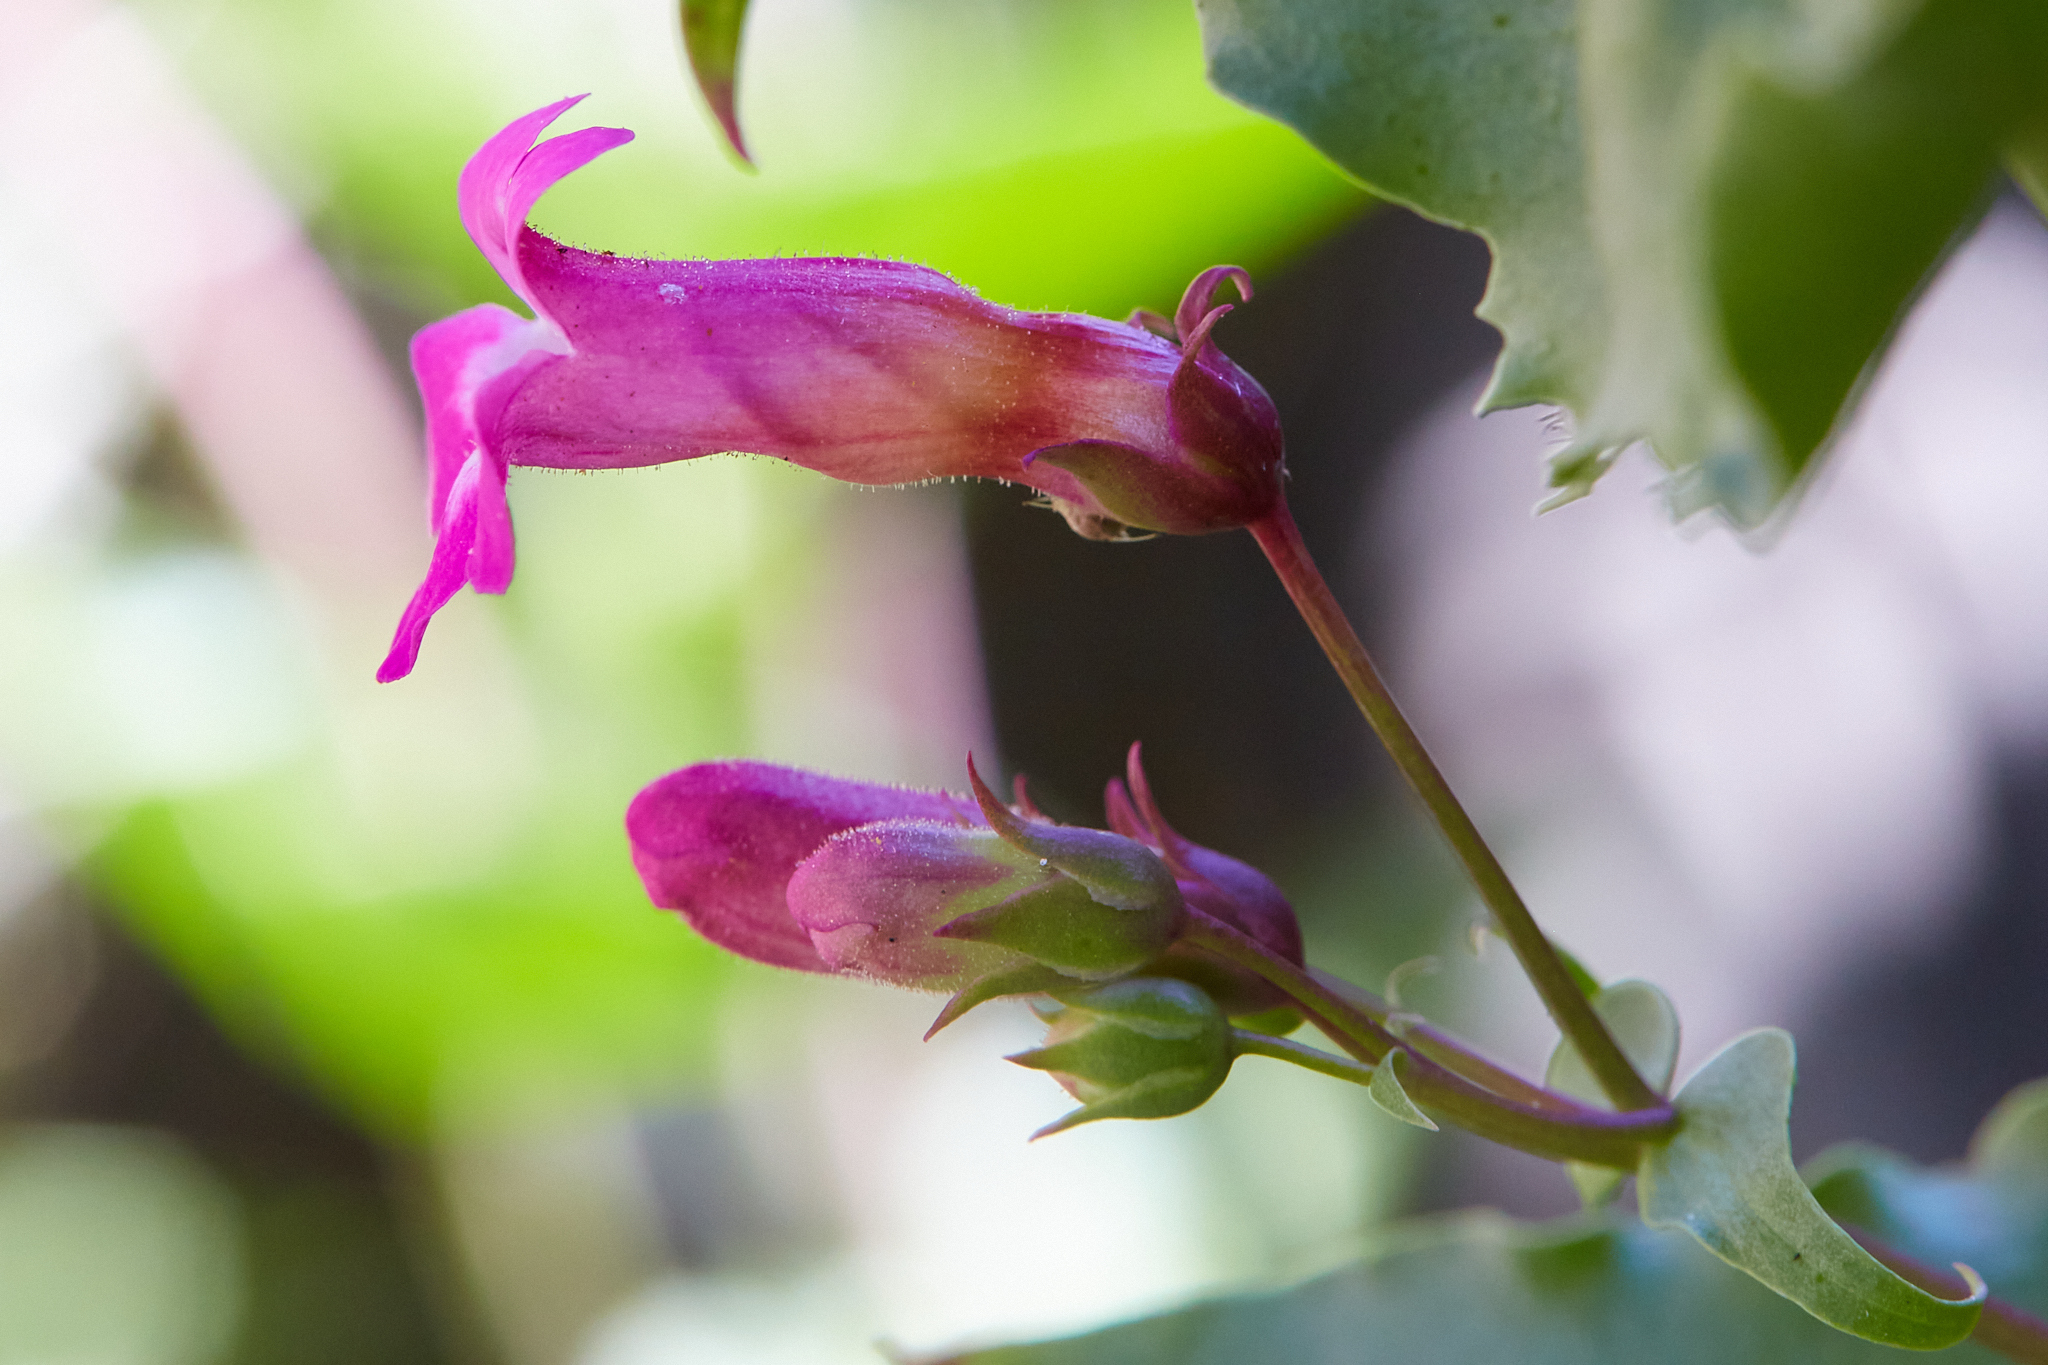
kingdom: Plantae
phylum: Tracheophyta
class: Magnoliopsida
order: Lamiales
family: Plantaginaceae
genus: Penstemon
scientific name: Penstemon clevelandii
